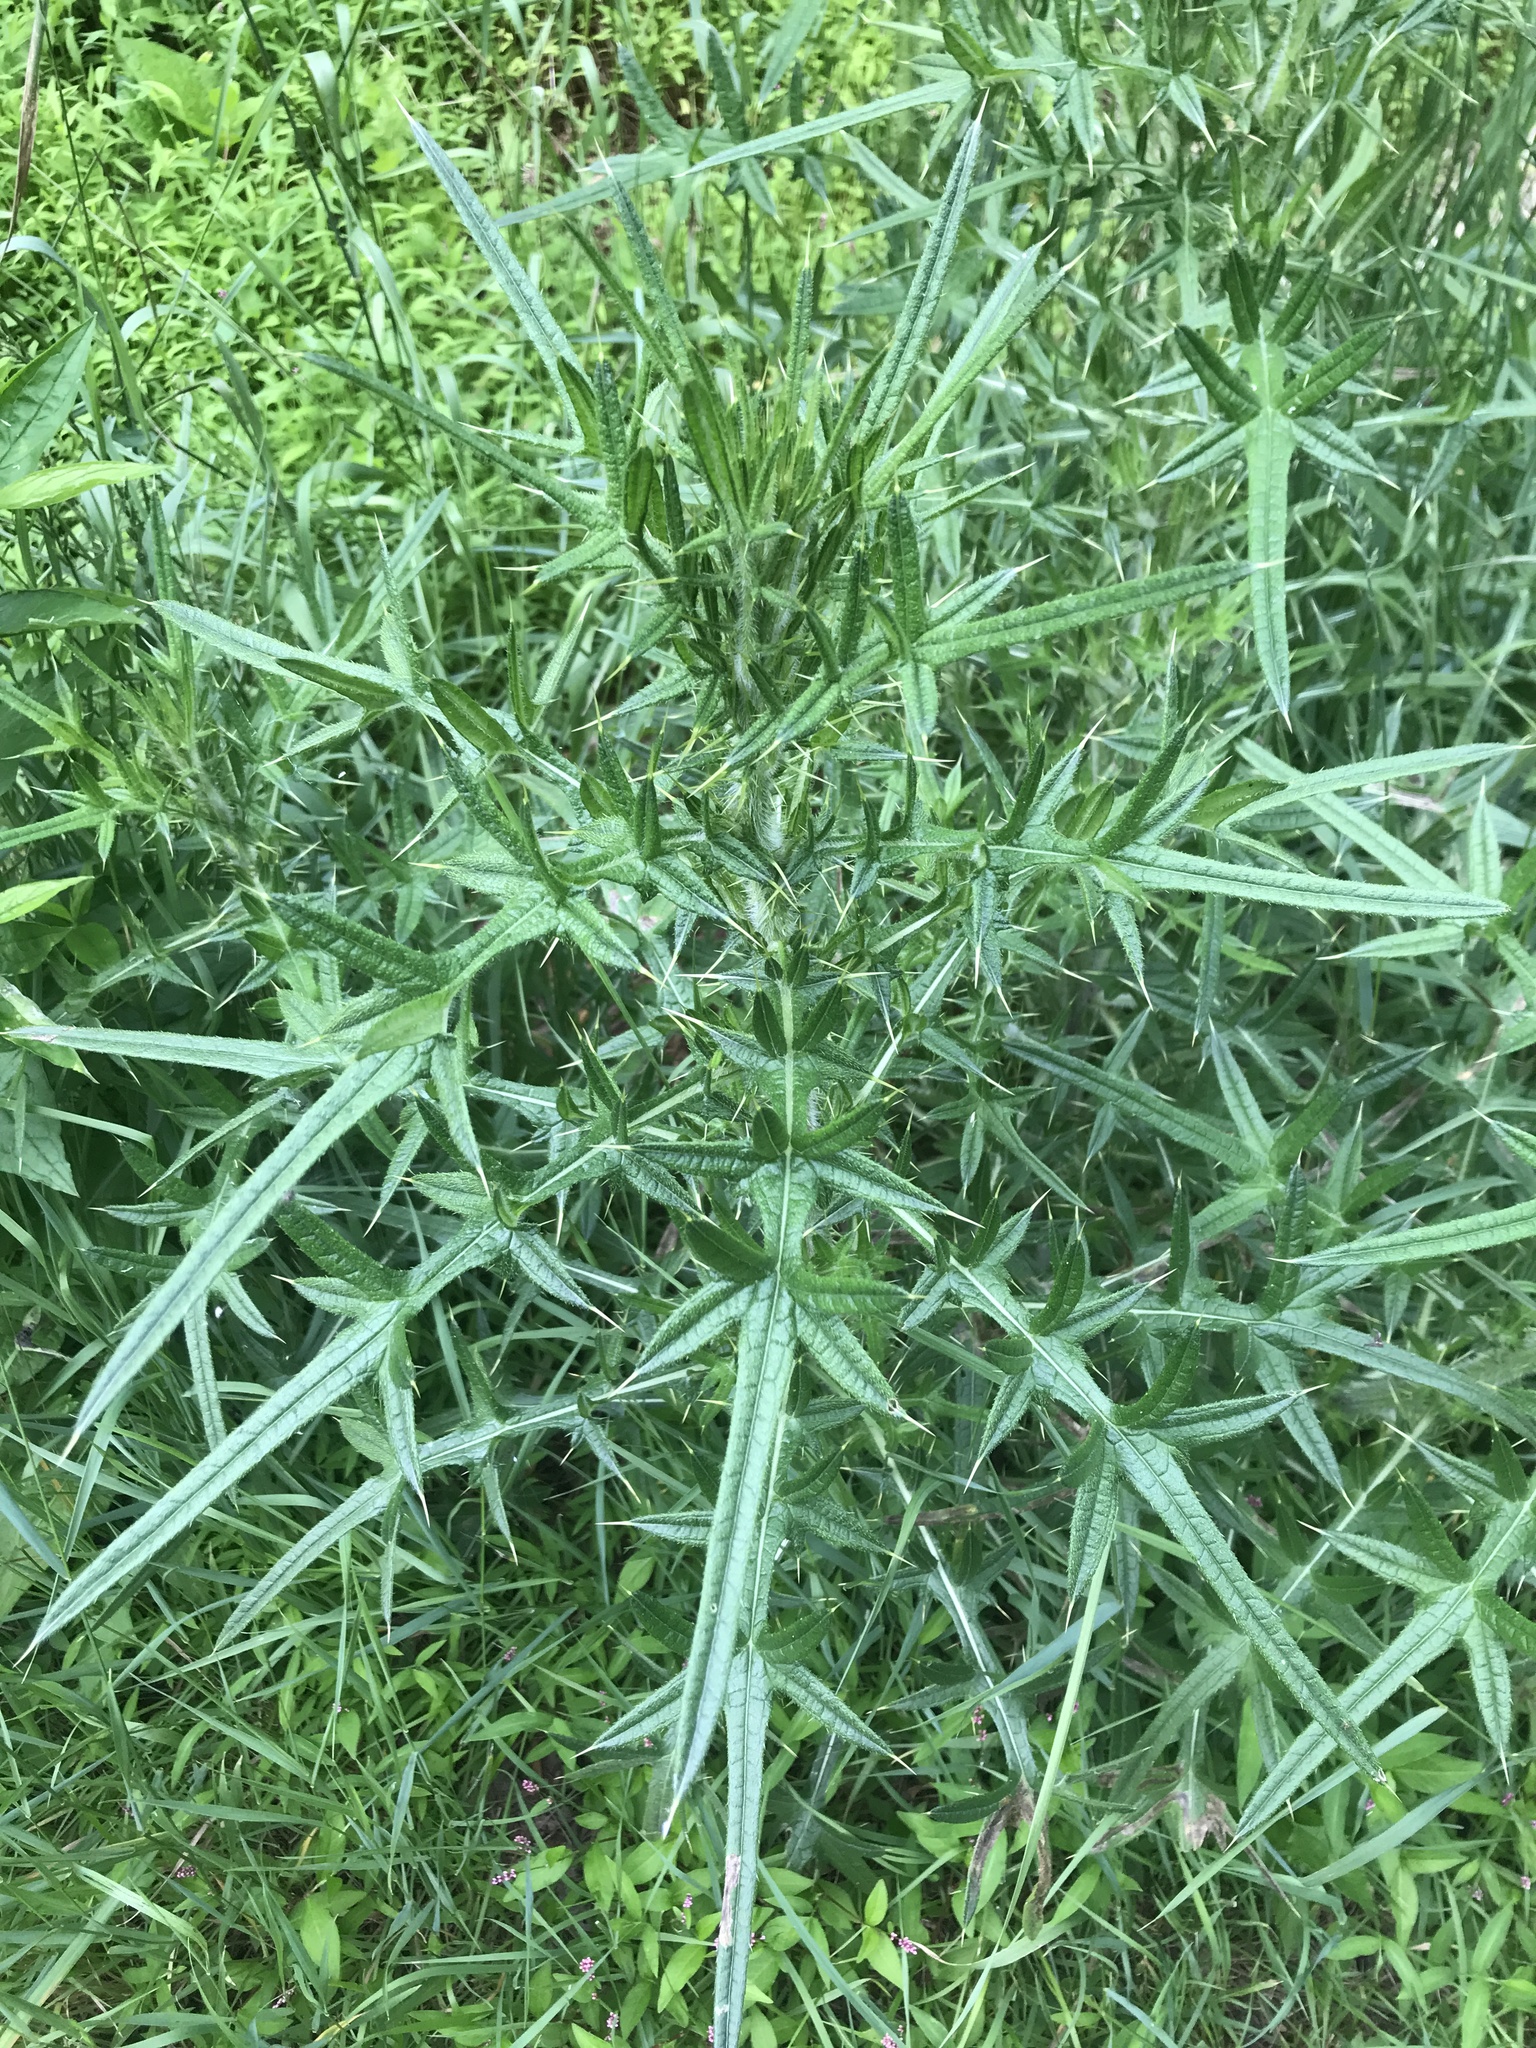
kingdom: Plantae
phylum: Tracheophyta
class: Magnoliopsida
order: Asterales
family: Asteraceae
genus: Cirsium
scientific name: Cirsium vulgare
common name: Bull thistle
